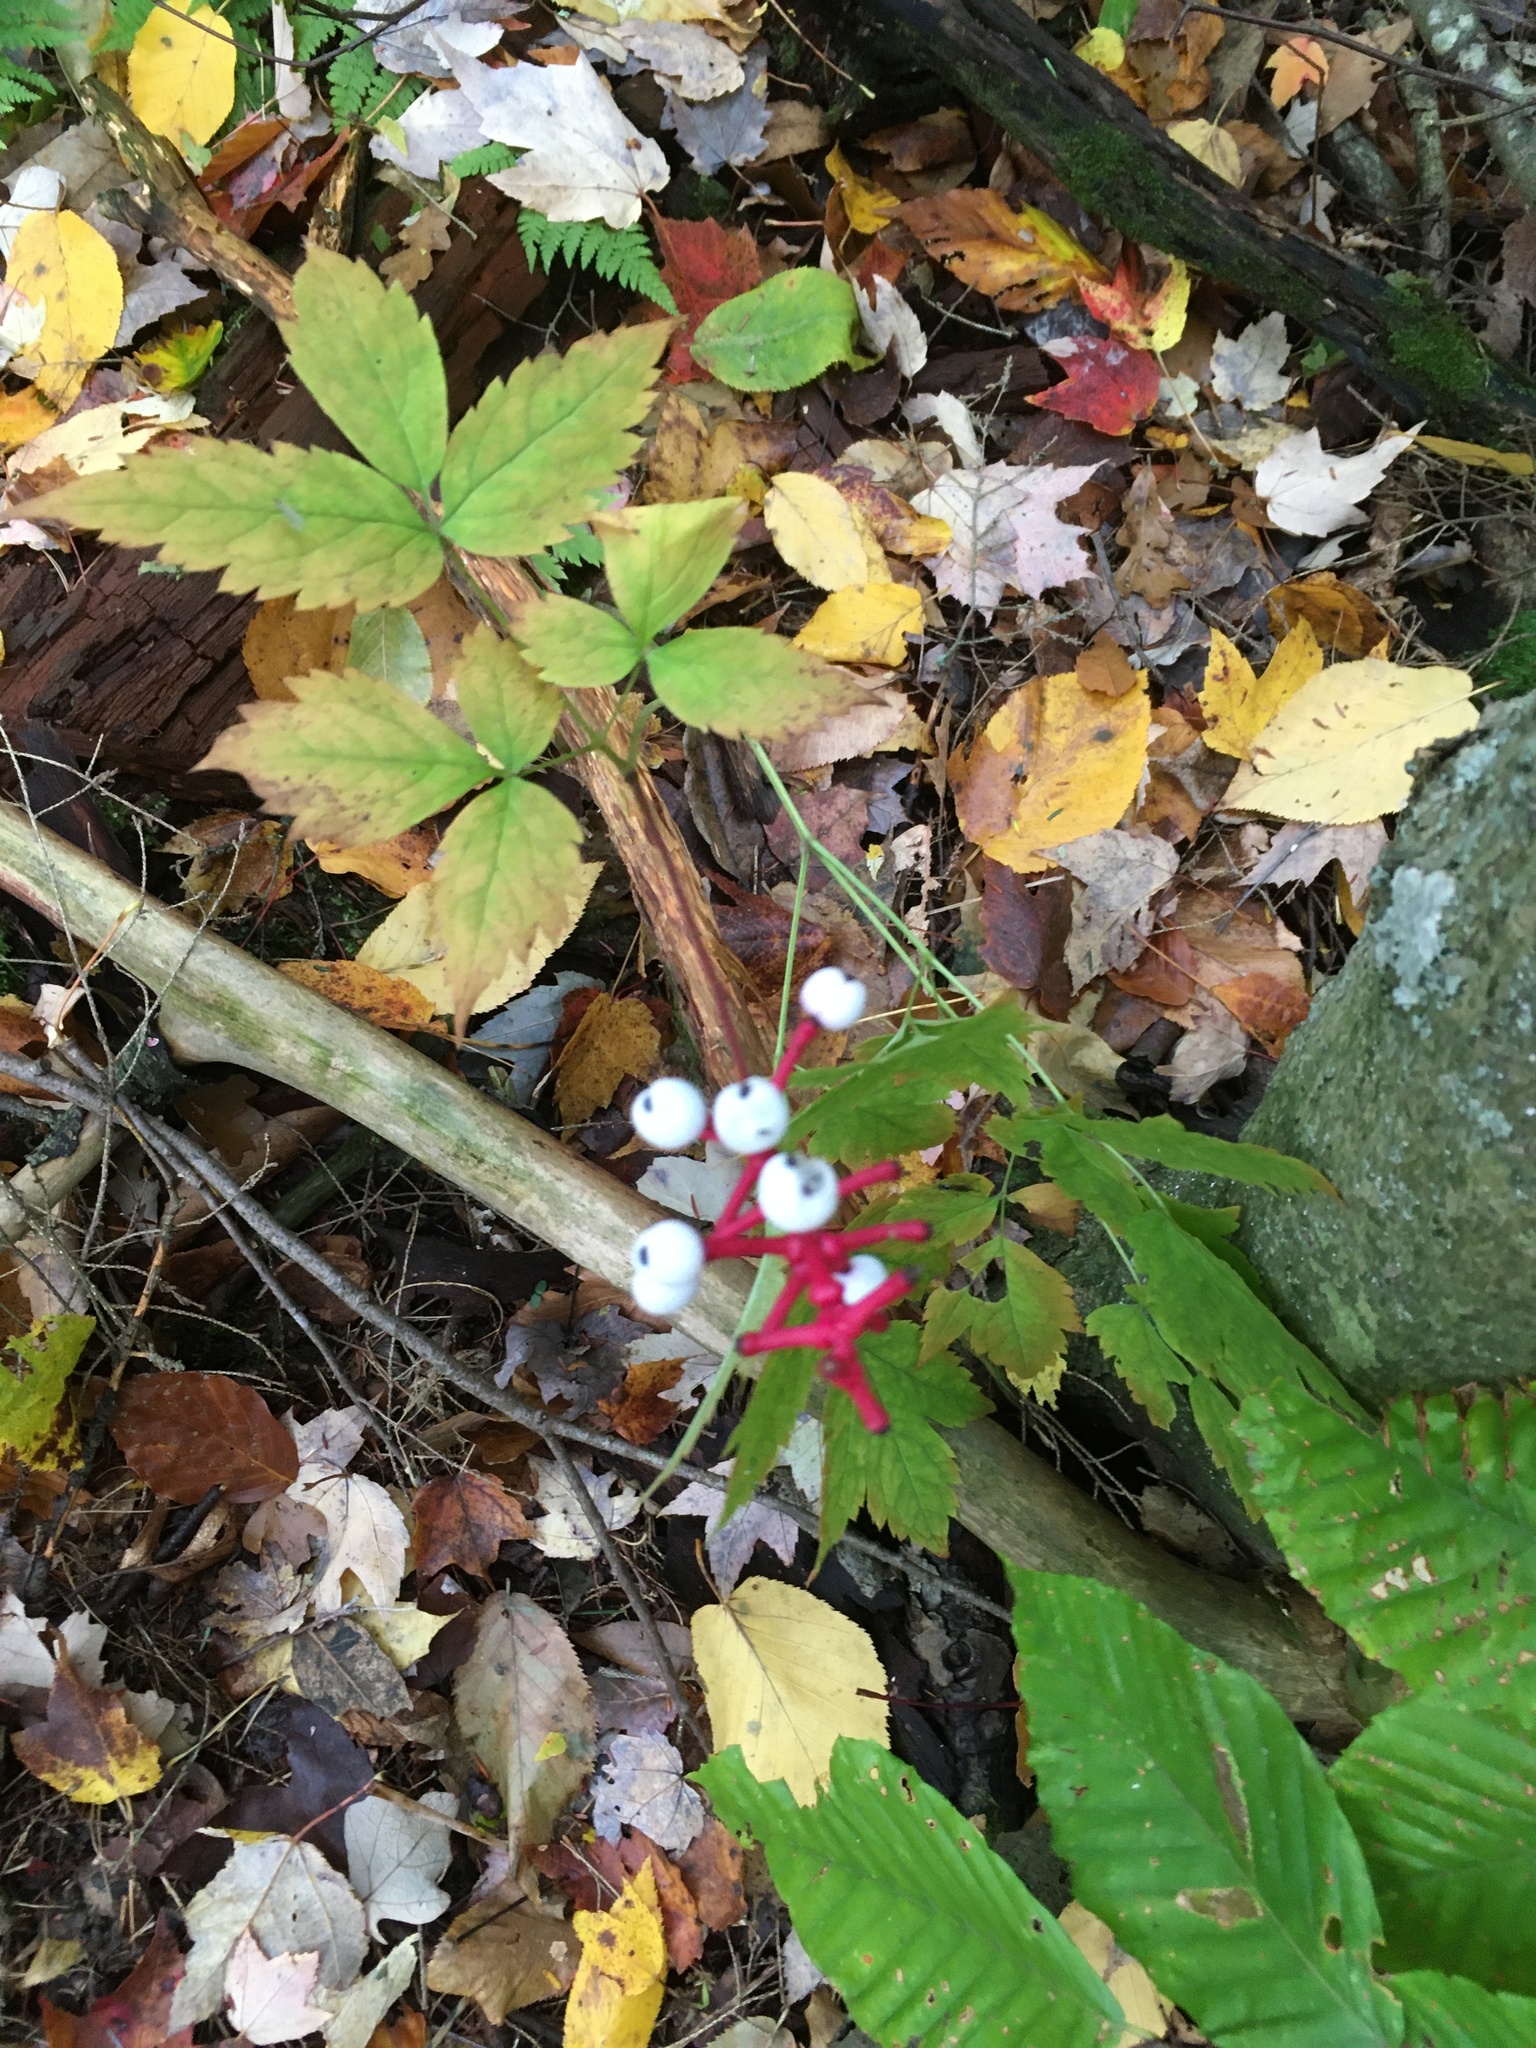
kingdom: Plantae
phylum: Tracheophyta
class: Magnoliopsida
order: Ranunculales
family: Ranunculaceae
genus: Actaea
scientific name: Actaea pachypoda
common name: Doll's-eyes
